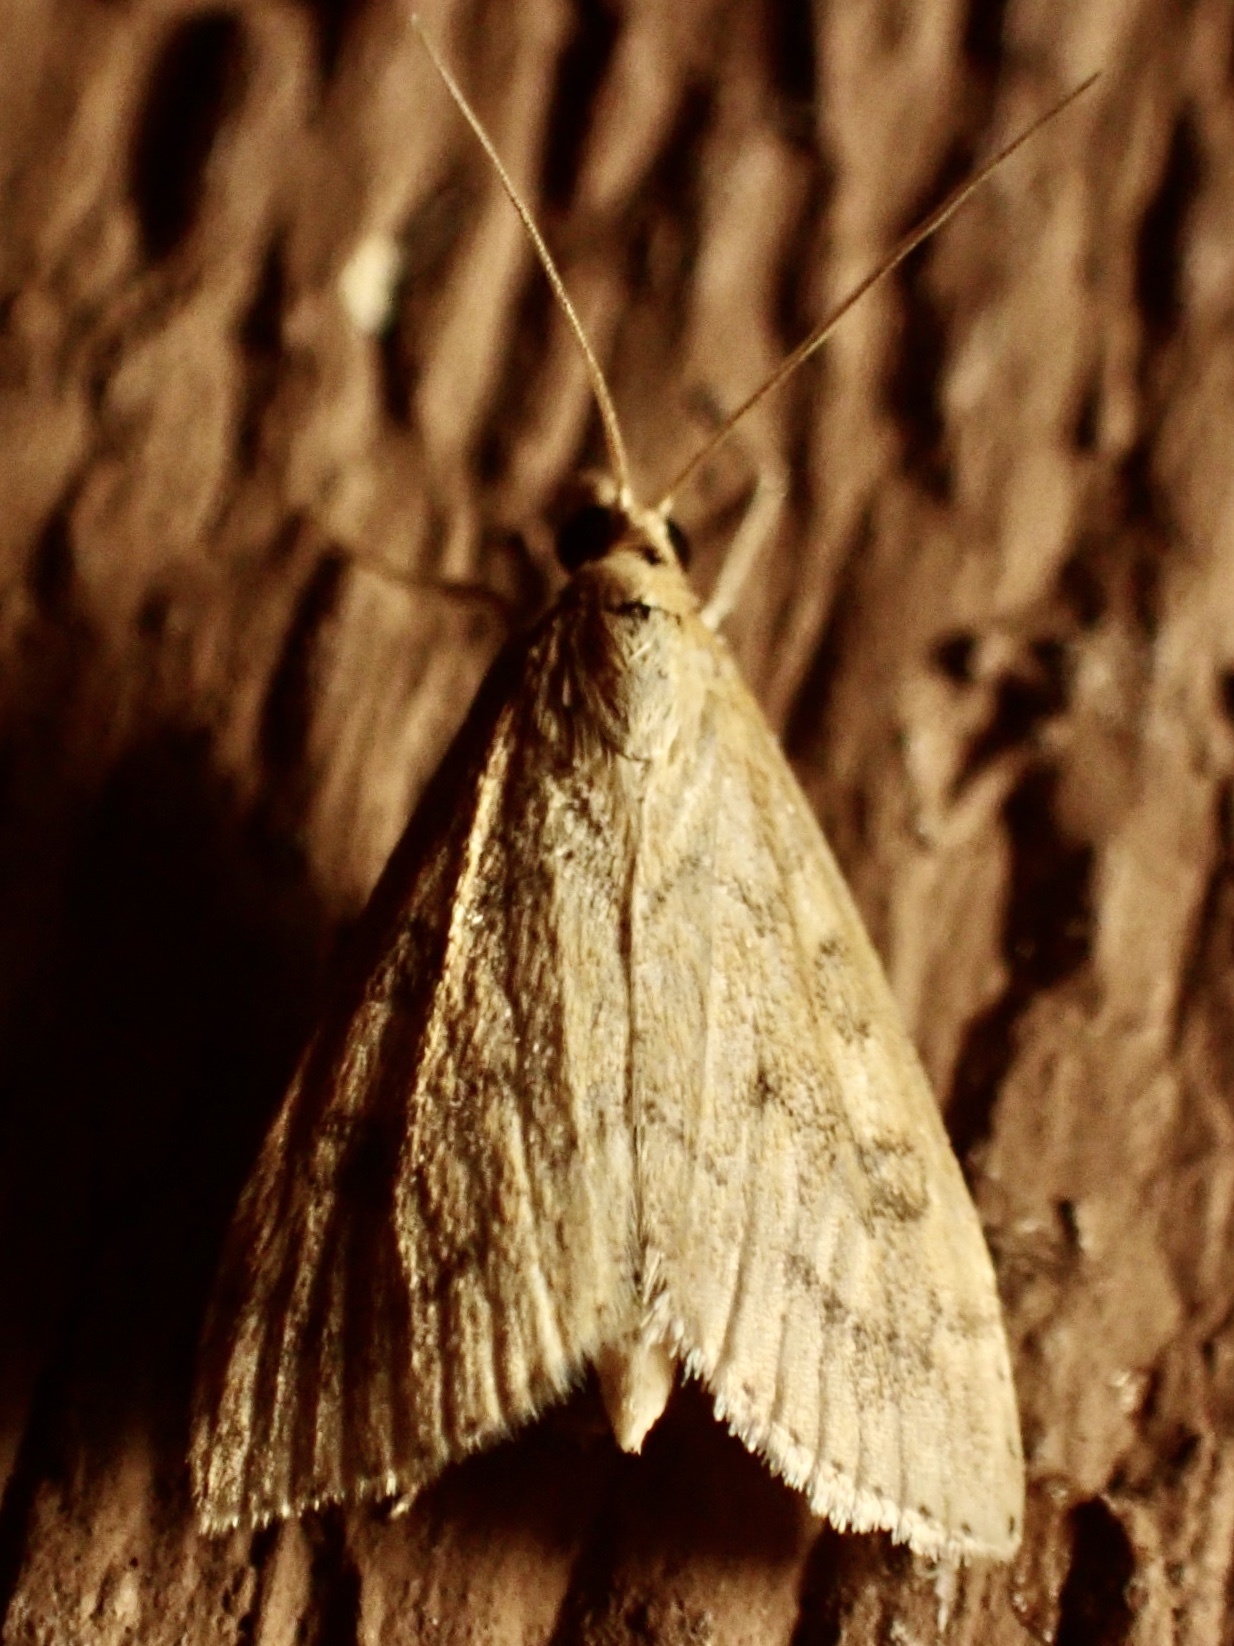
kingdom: Animalia
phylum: Arthropoda
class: Insecta
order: Lepidoptera
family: Crambidae
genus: Udea
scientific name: Udea rubigalis
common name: Celery leaftier moth
